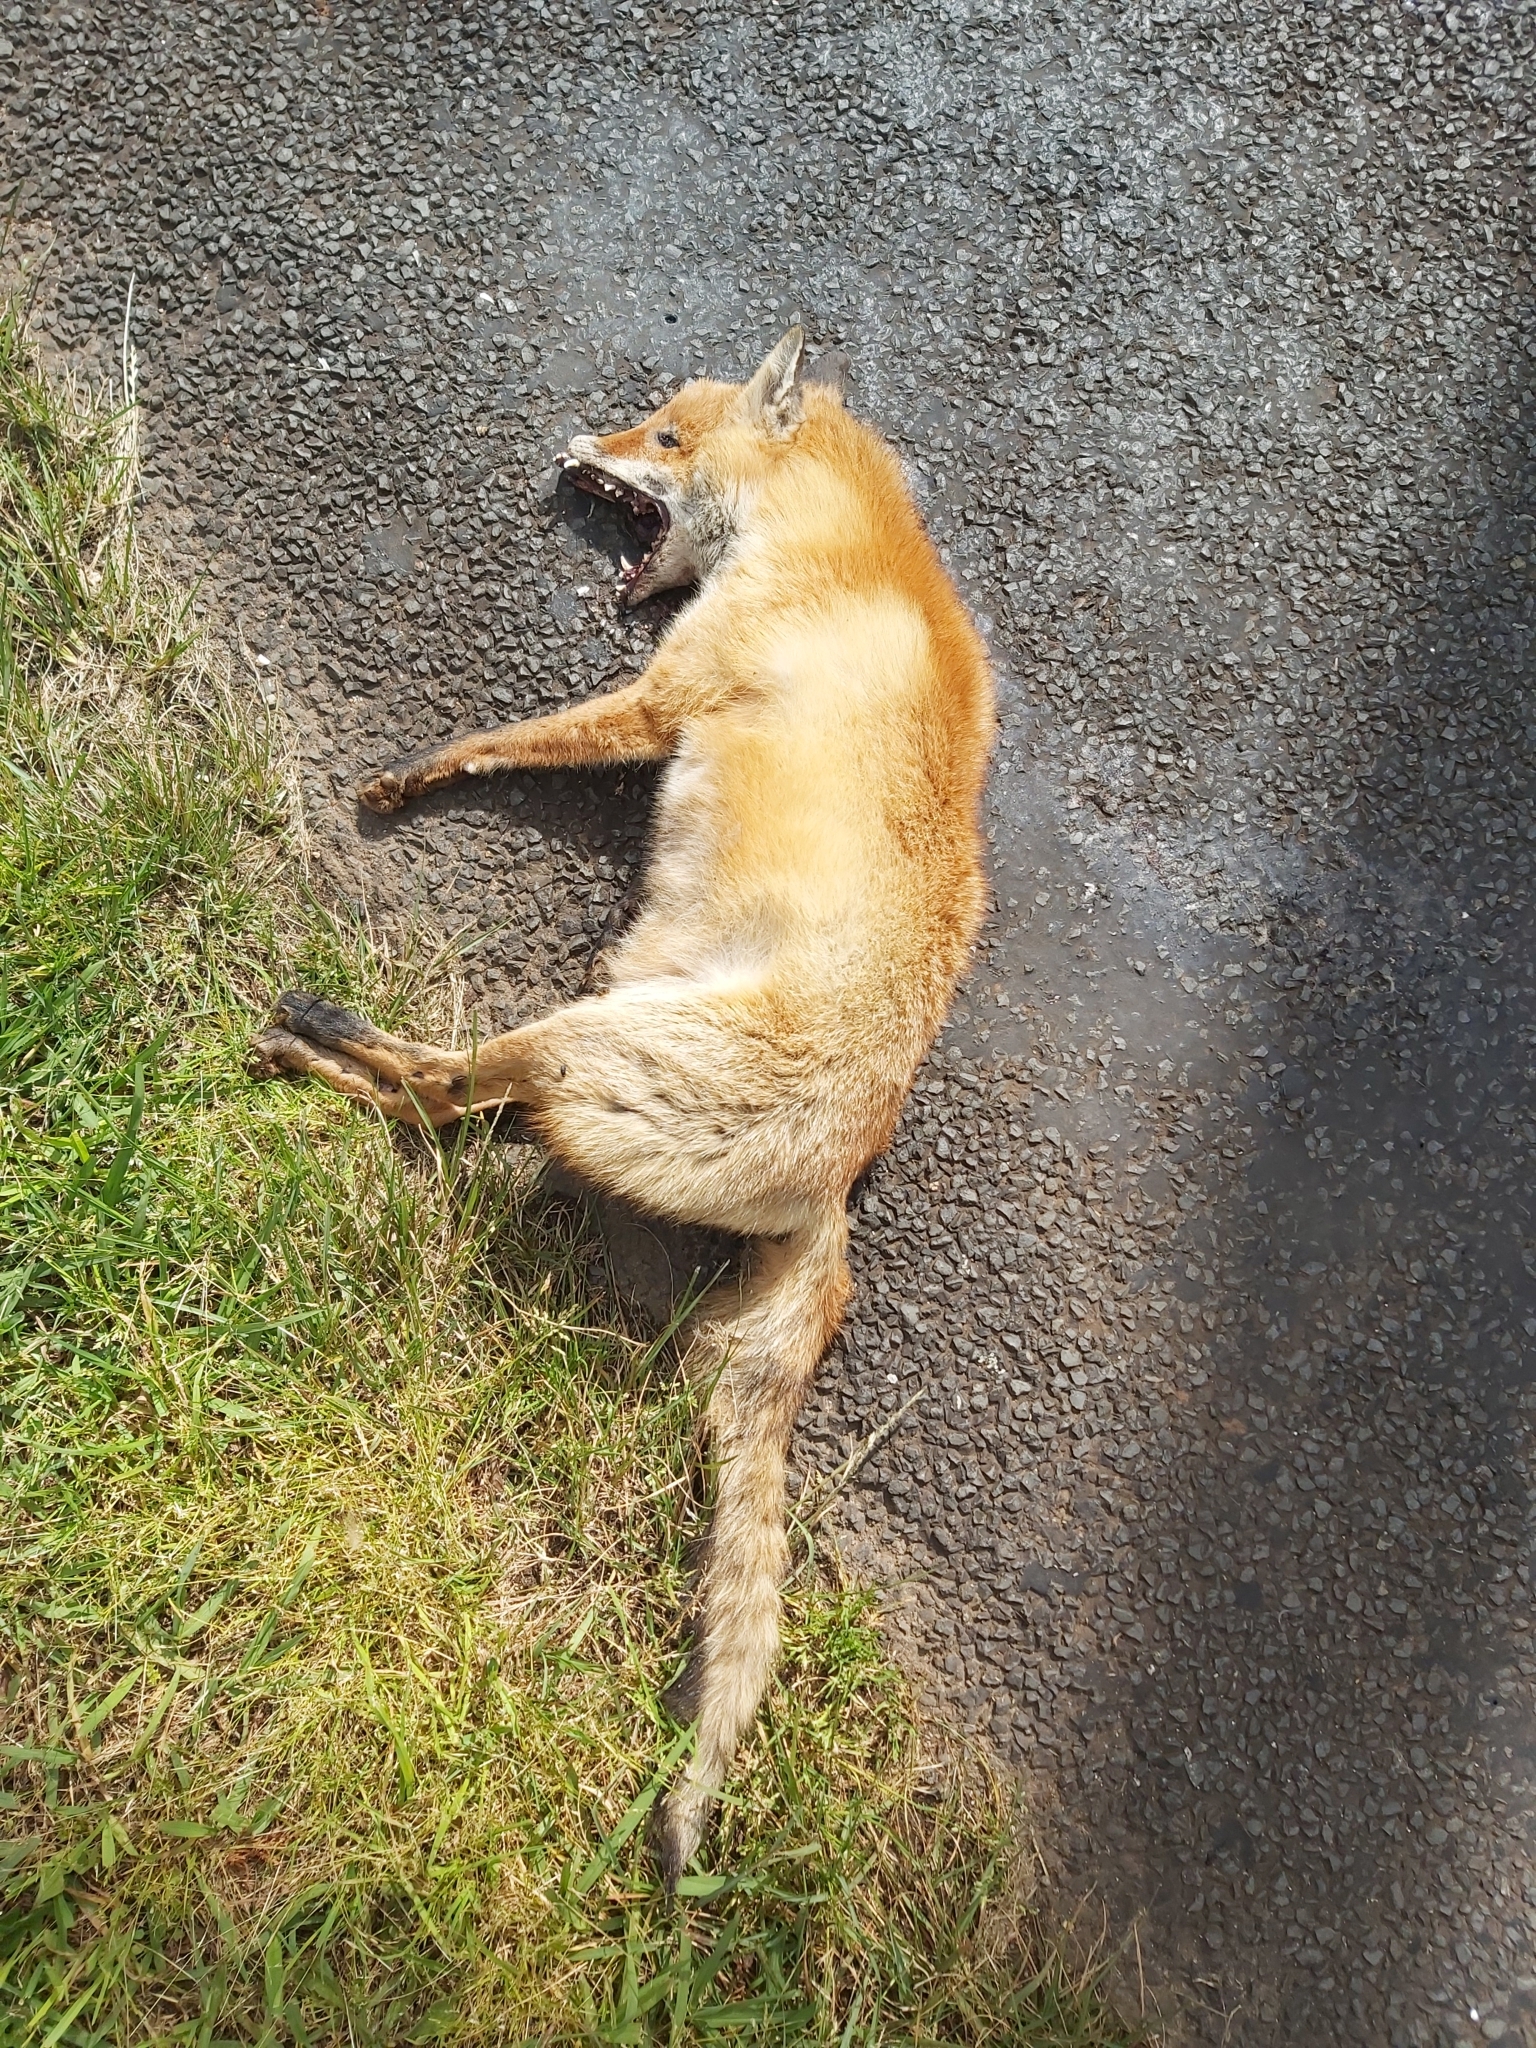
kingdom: Animalia
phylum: Chordata
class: Mammalia
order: Carnivora
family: Canidae
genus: Vulpes
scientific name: Vulpes vulpes
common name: Red fox
